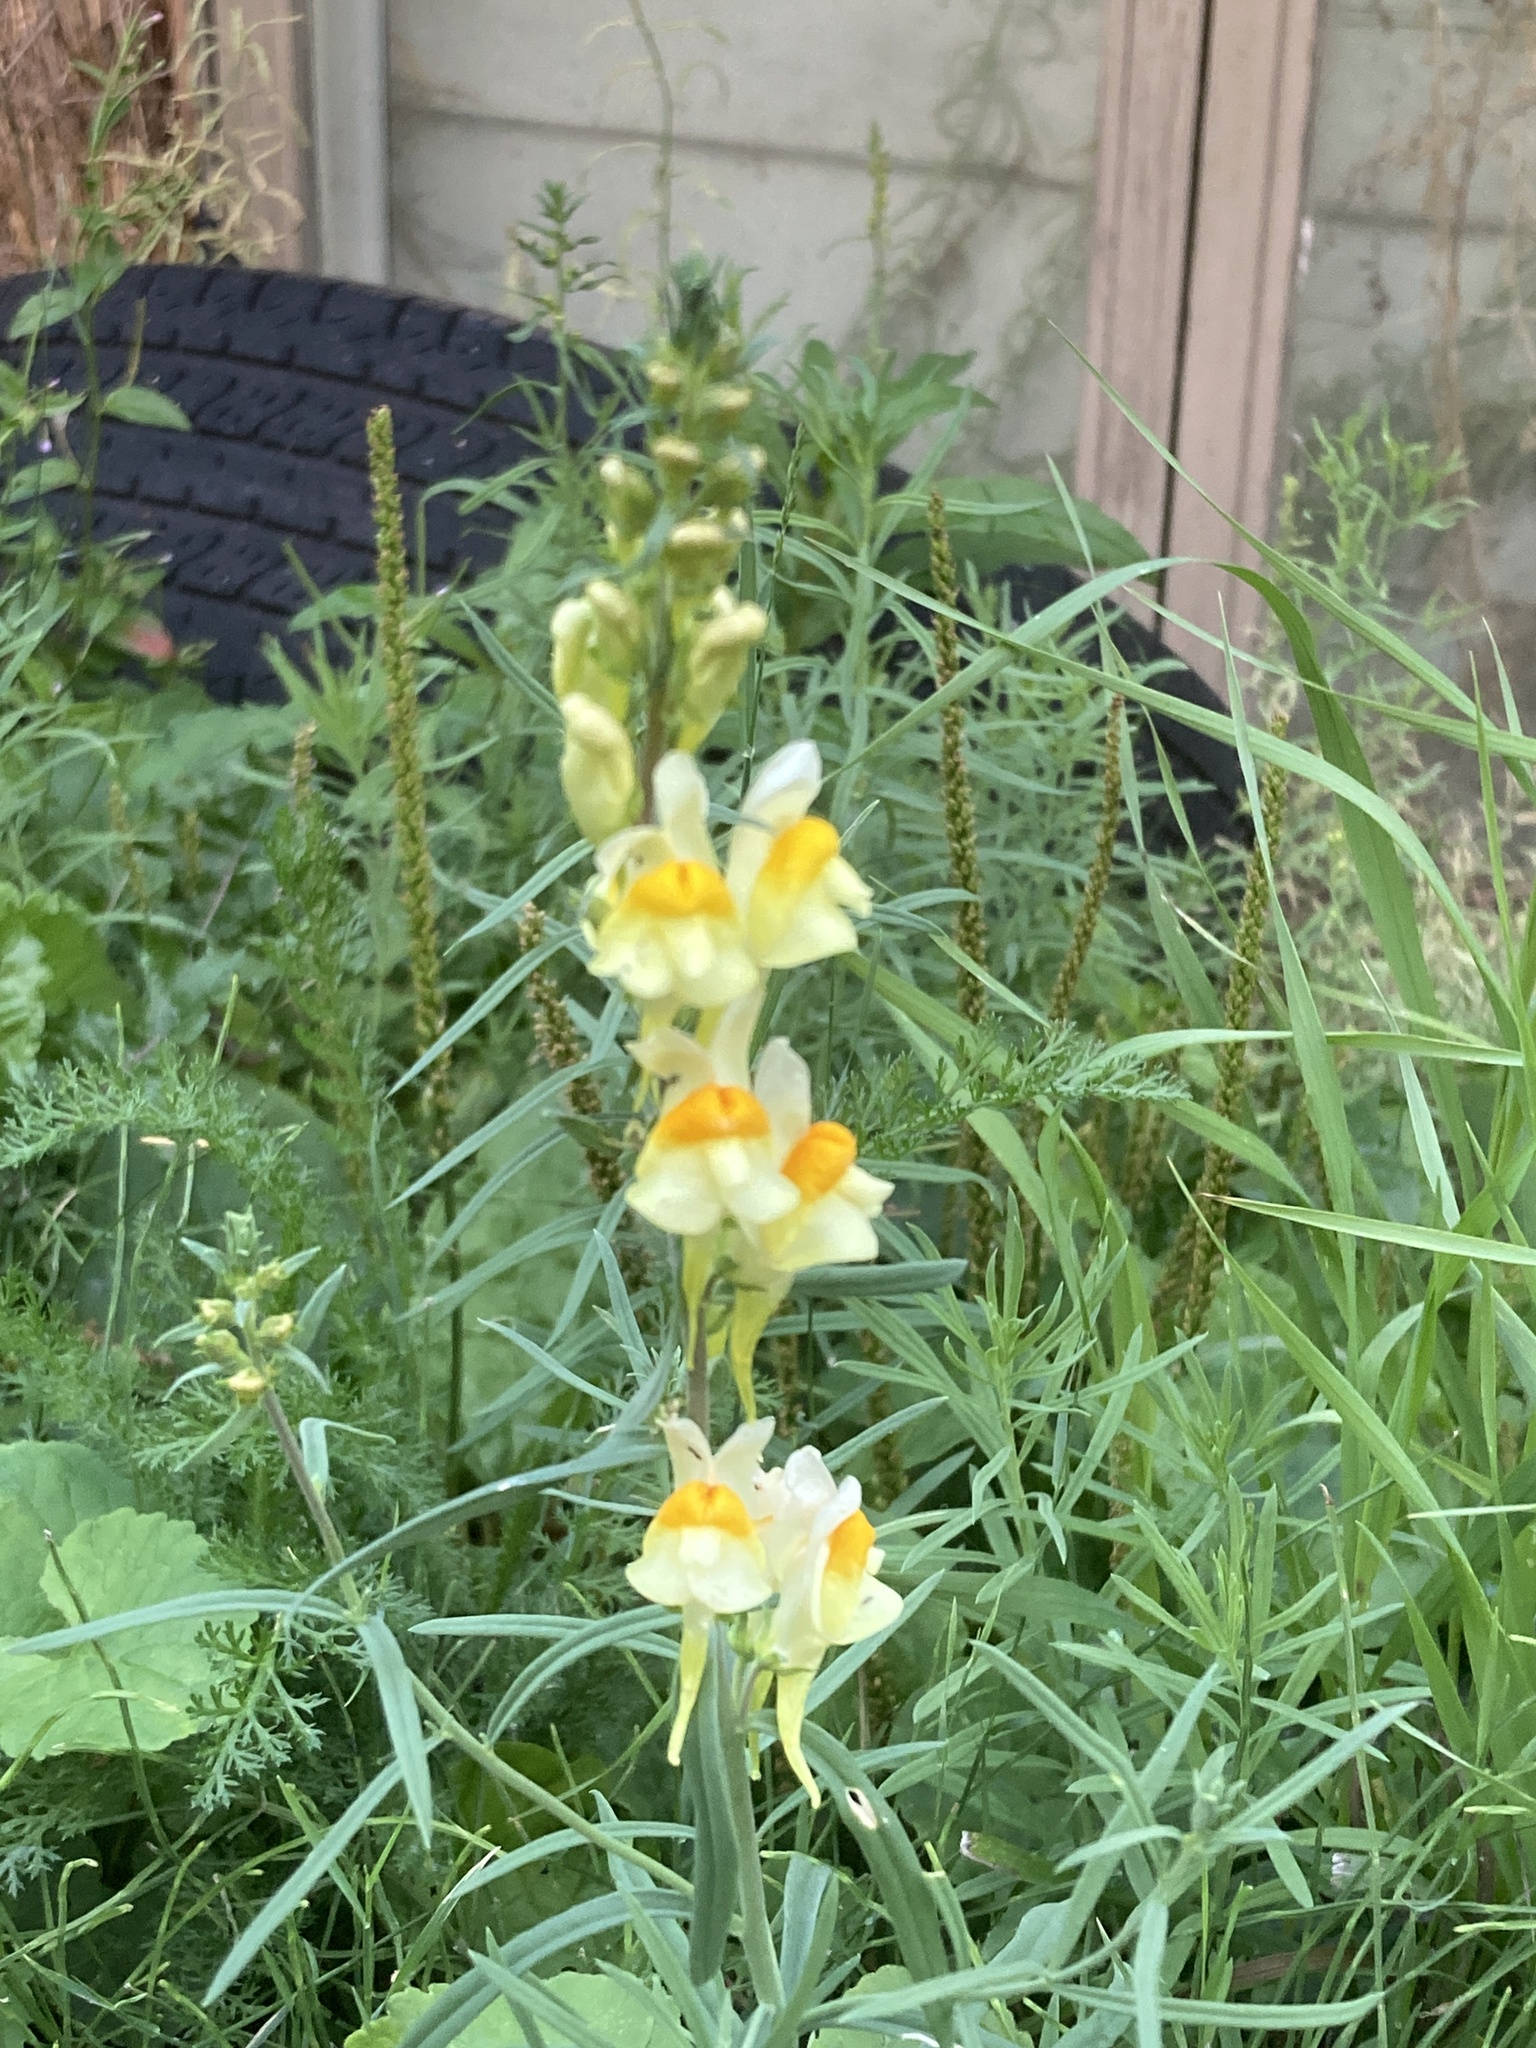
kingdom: Plantae
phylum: Tracheophyta
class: Magnoliopsida
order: Lamiales
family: Plantaginaceae
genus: Linaria
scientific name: Linaria vulgaris
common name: Butter and eggs
